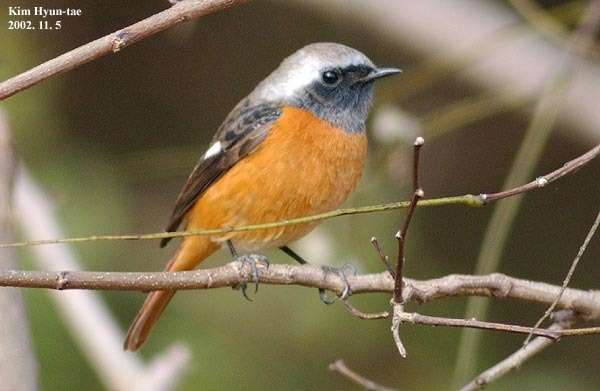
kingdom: Animalia
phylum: Chordata
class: Aves
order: Passeriformes
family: Muscicapidae
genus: Phoenicurus
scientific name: Phoenicurus auroreus
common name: Daurian redstart
